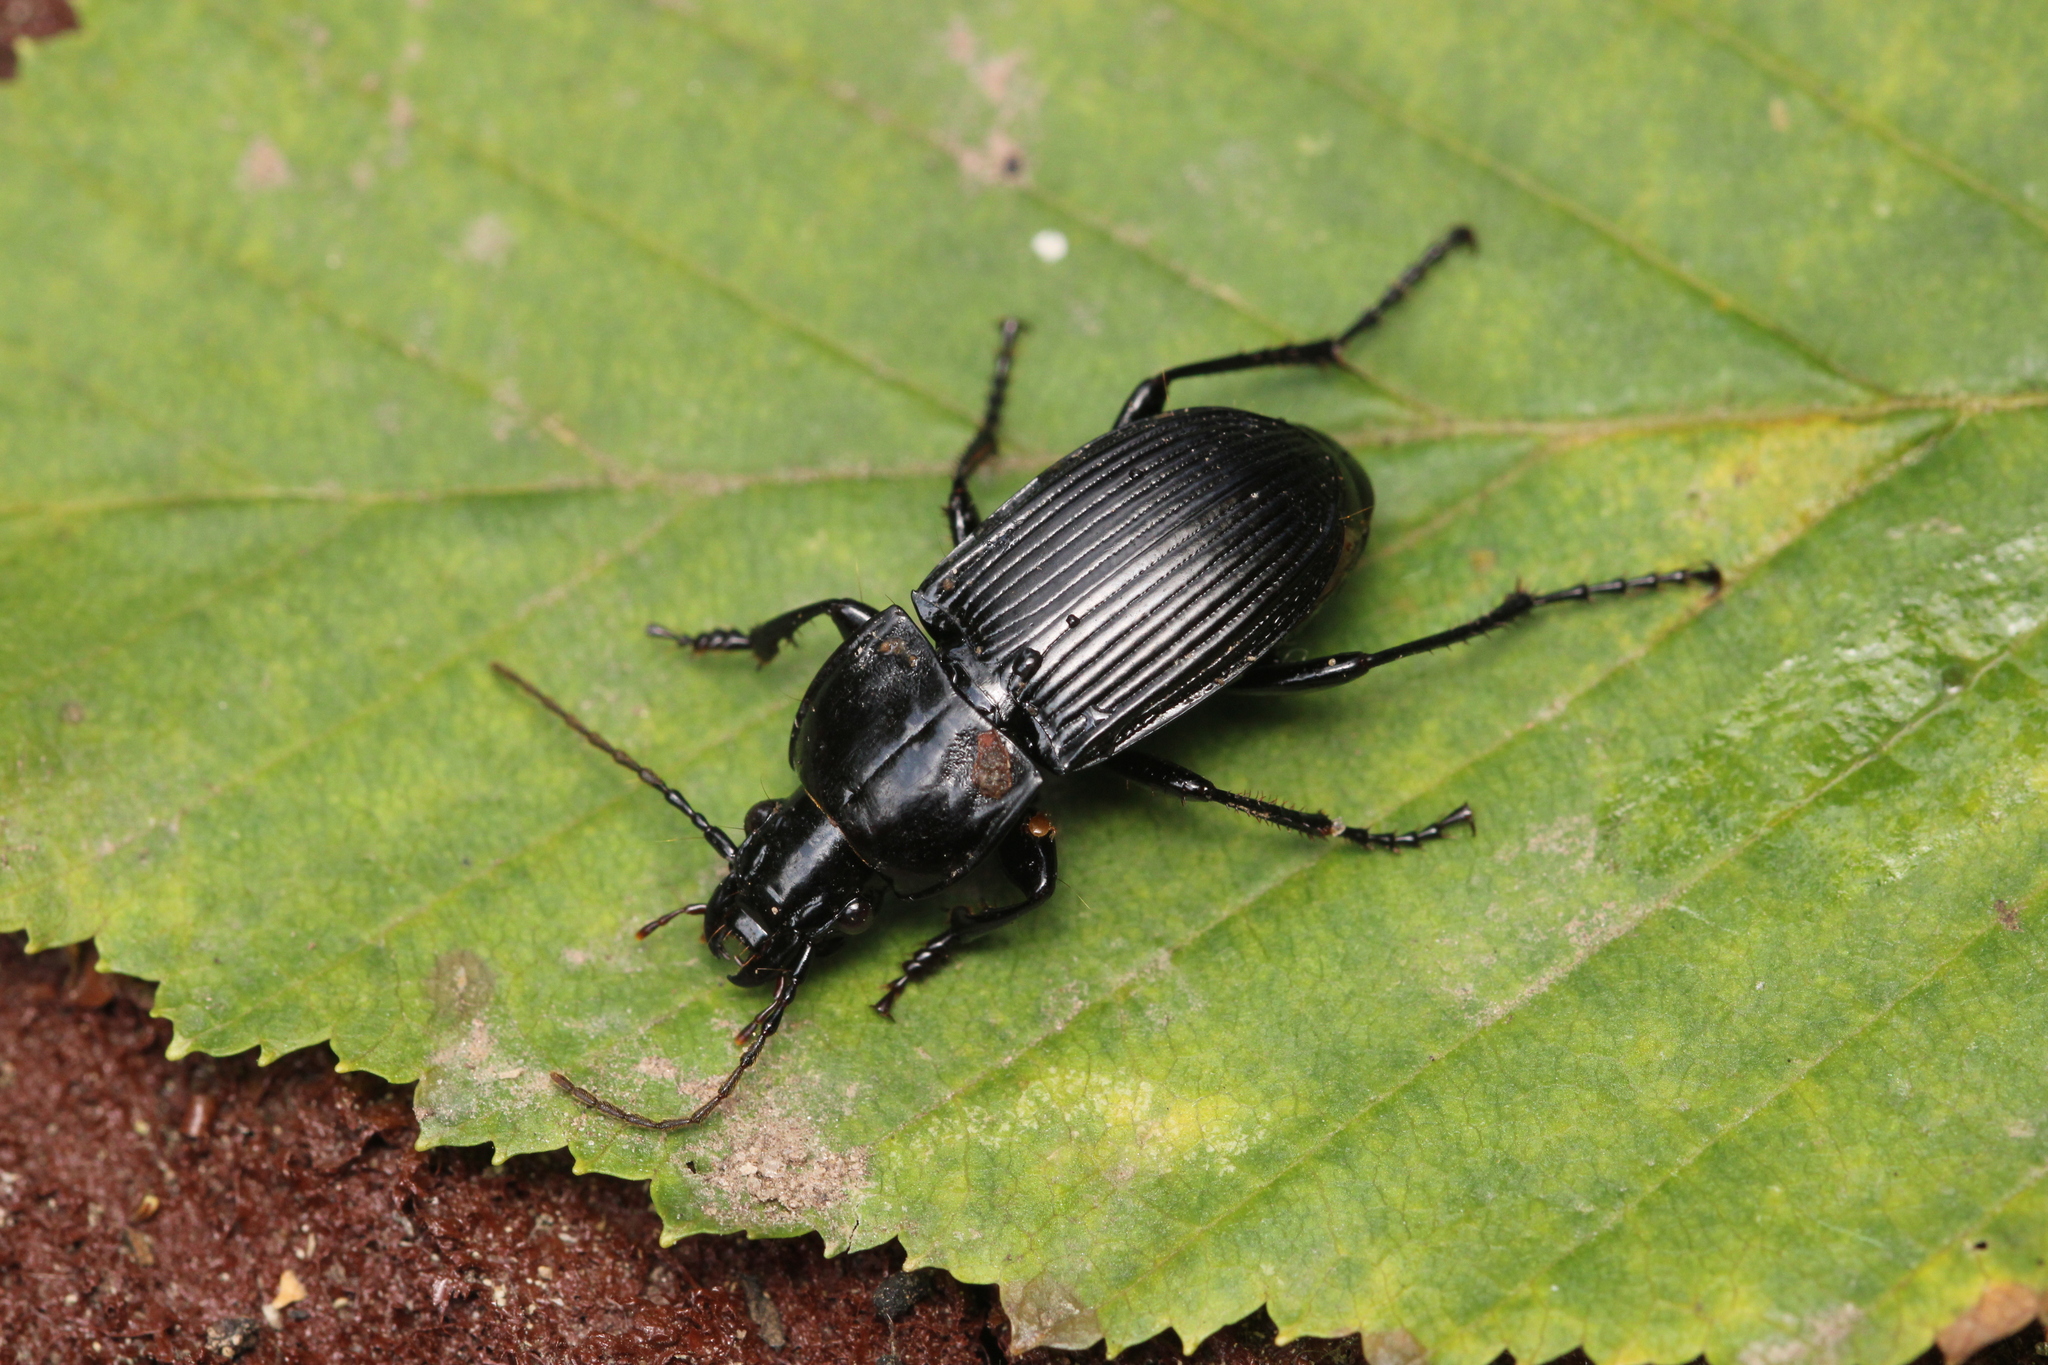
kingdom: Animalia
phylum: Arthropoda
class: Insecta
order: Coleoptera
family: Carabidae
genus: Abax
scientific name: Abax carinatus
